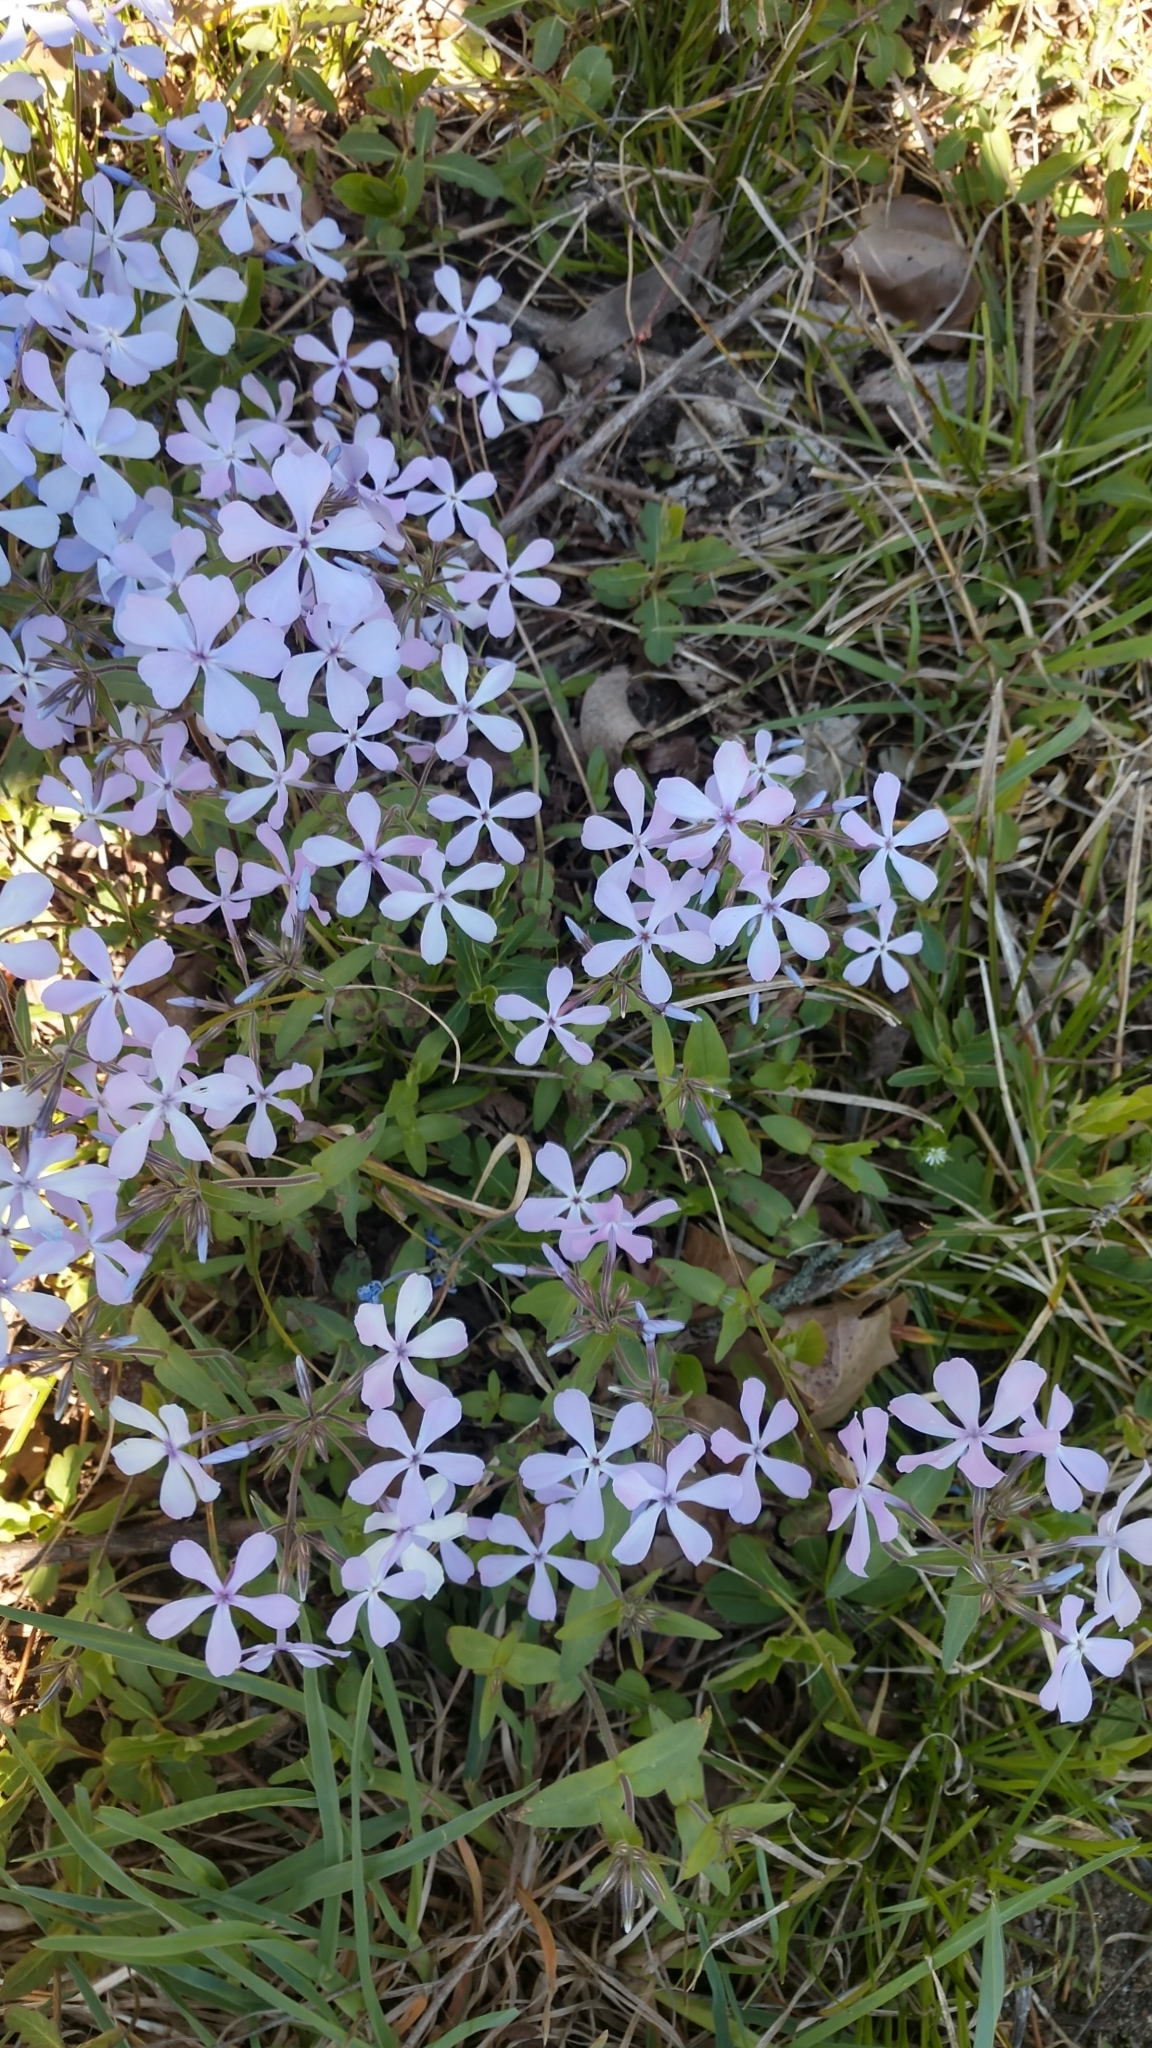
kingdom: Plantae
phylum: Tracheophyta
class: Magnoliopsida
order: Ericales
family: Polemoniaceae
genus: Phlox
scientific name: Phlox divaricata
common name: Blue phlox
